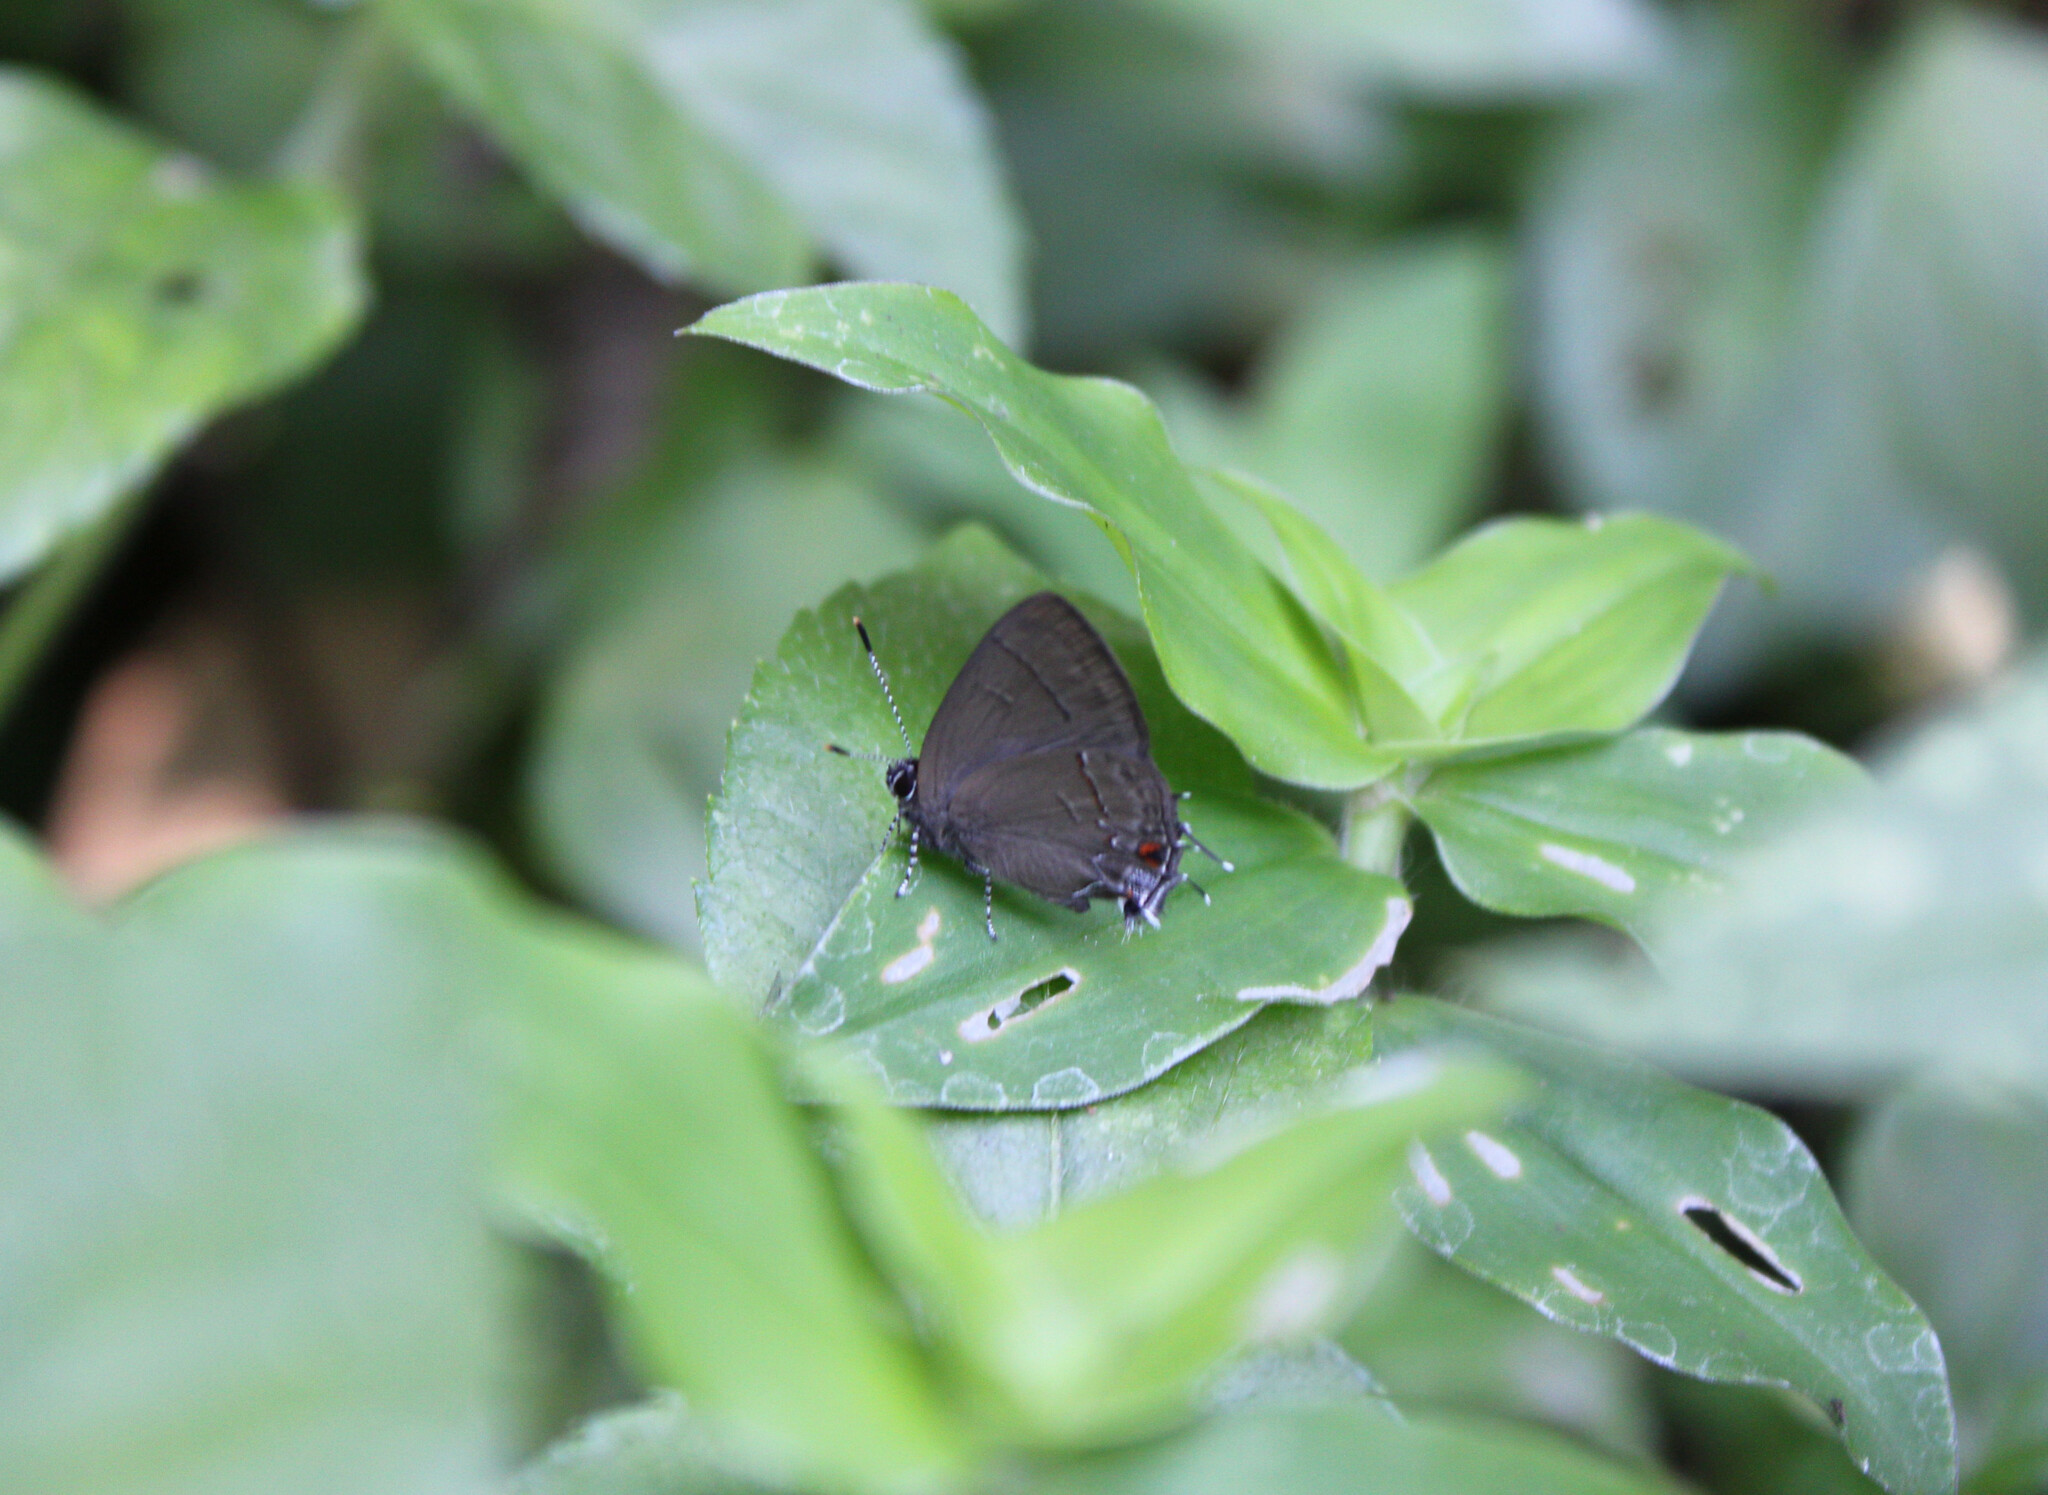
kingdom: Animalia
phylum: Arthropoda
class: Insecta
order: Lepidoptera
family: Lycaenidae
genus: Calycopis
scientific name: Calycopis
